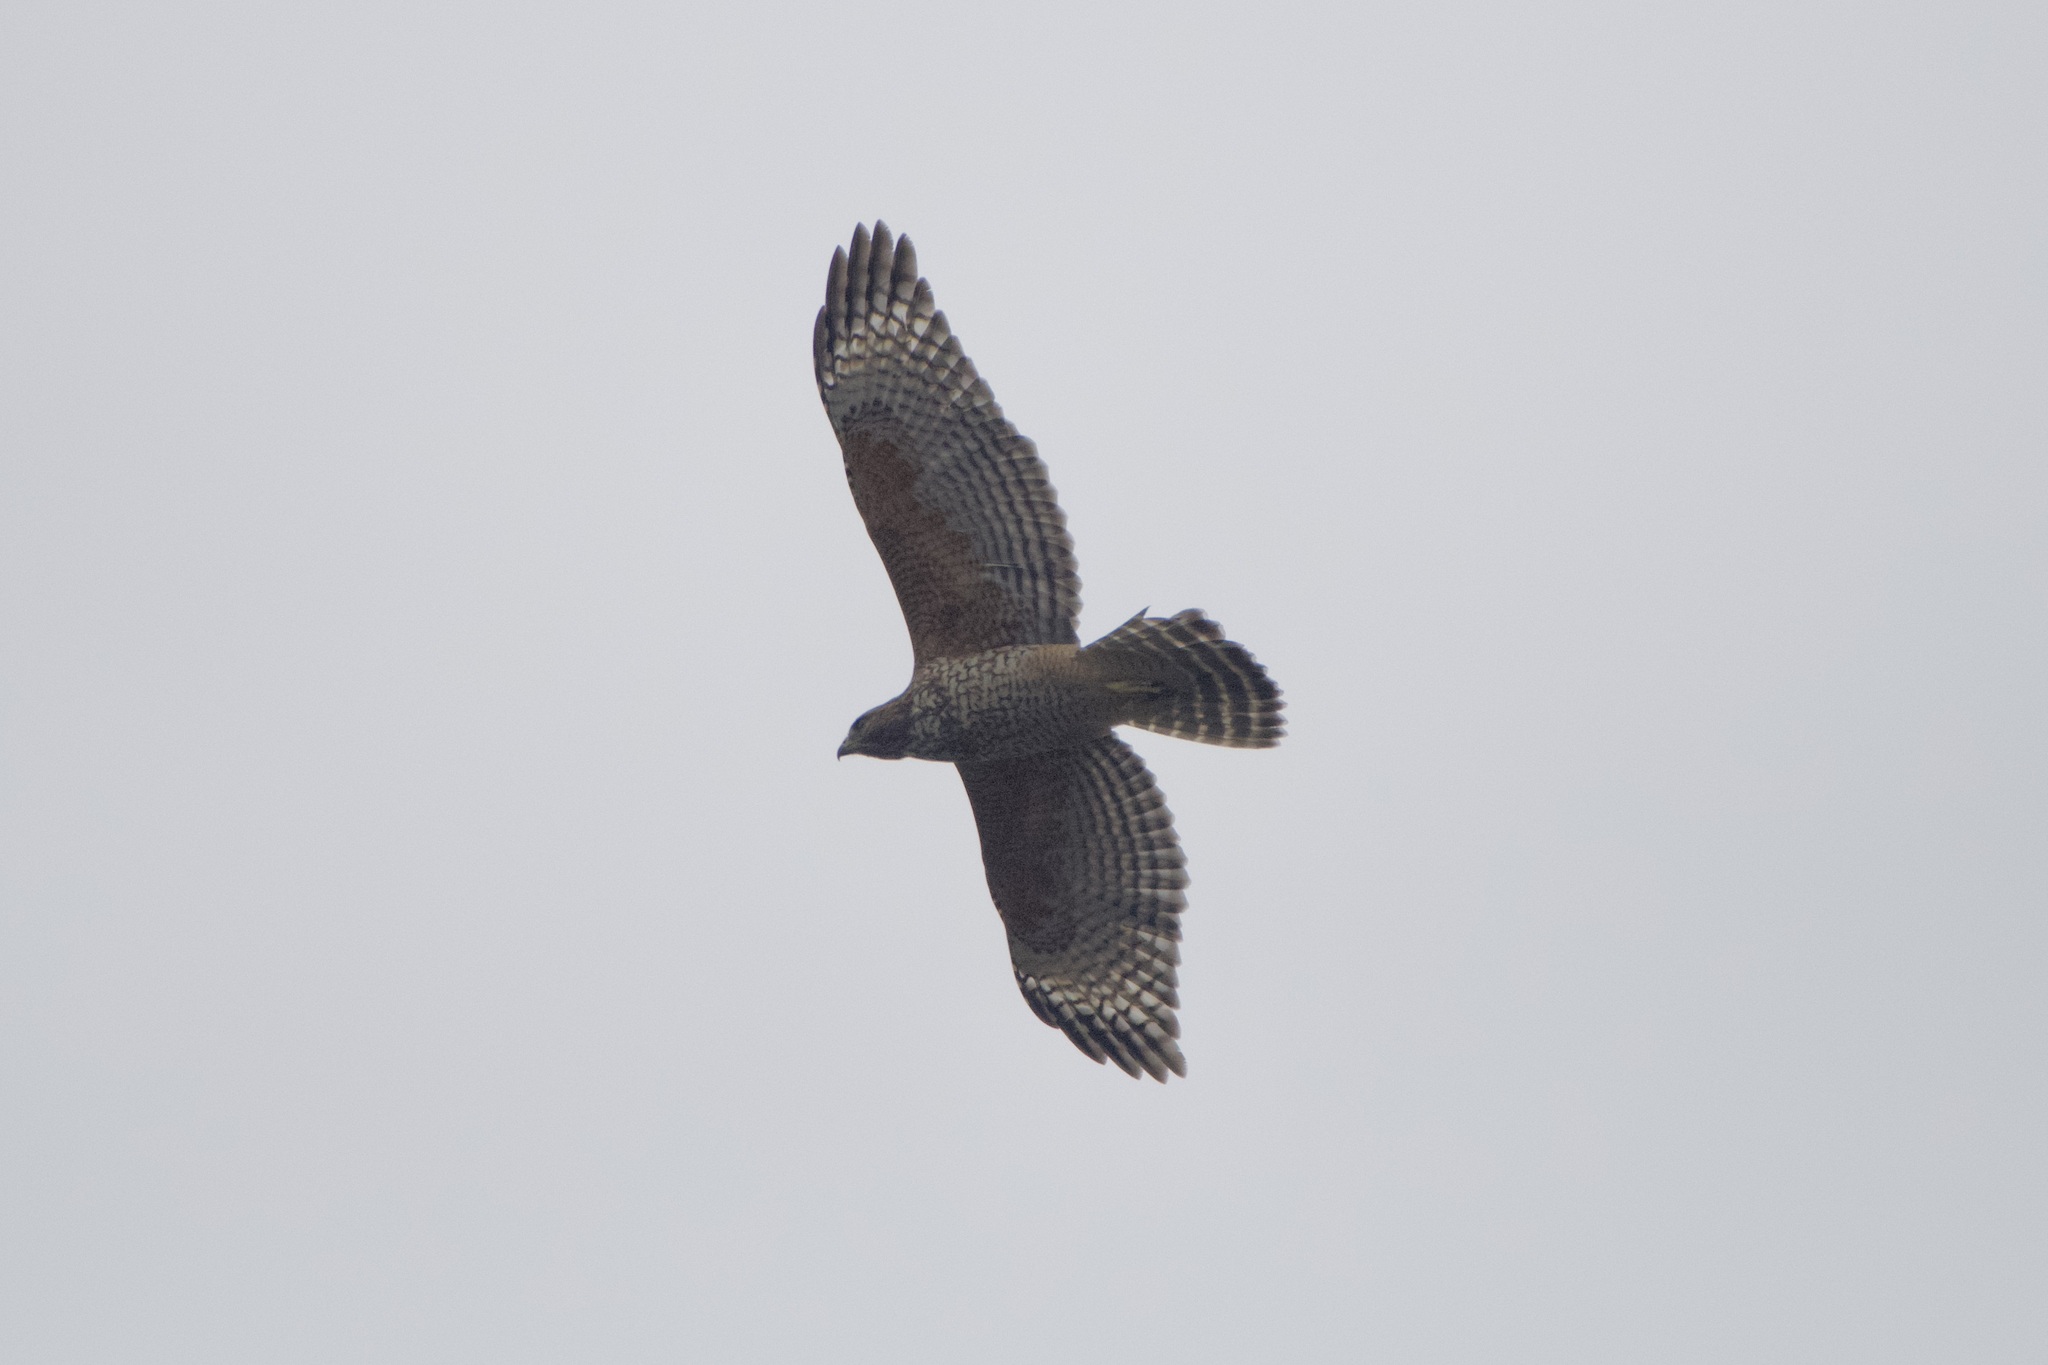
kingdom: Animalia
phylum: Chordata
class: Aves
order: Accipitriformes
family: Accipitridae
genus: Buteo
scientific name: Buteo lineatus
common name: Red-shouldered hawk
